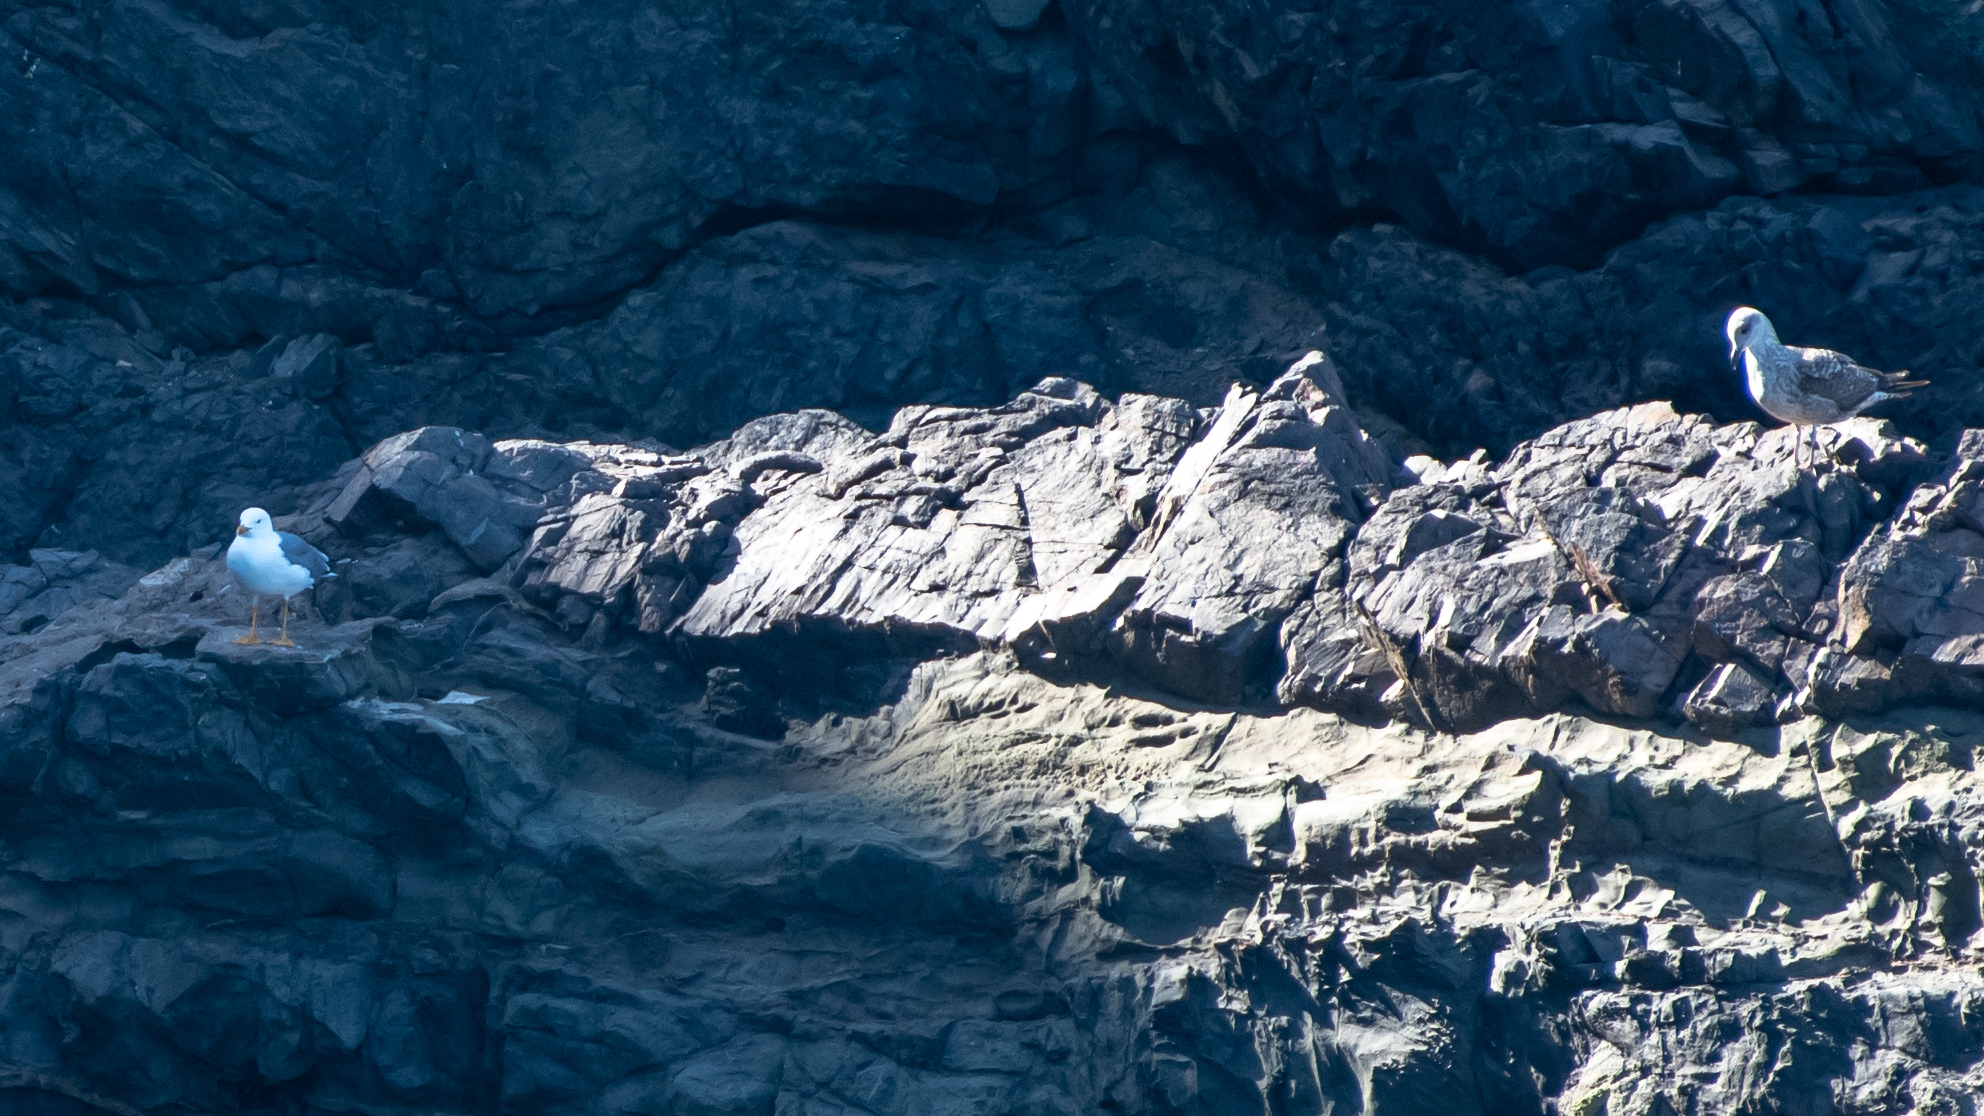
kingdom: Animalia
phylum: Chordata
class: Aves
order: Charadriiformes
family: Laridae
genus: Larus
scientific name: Larus michahellis
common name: Yellow-legged gull
